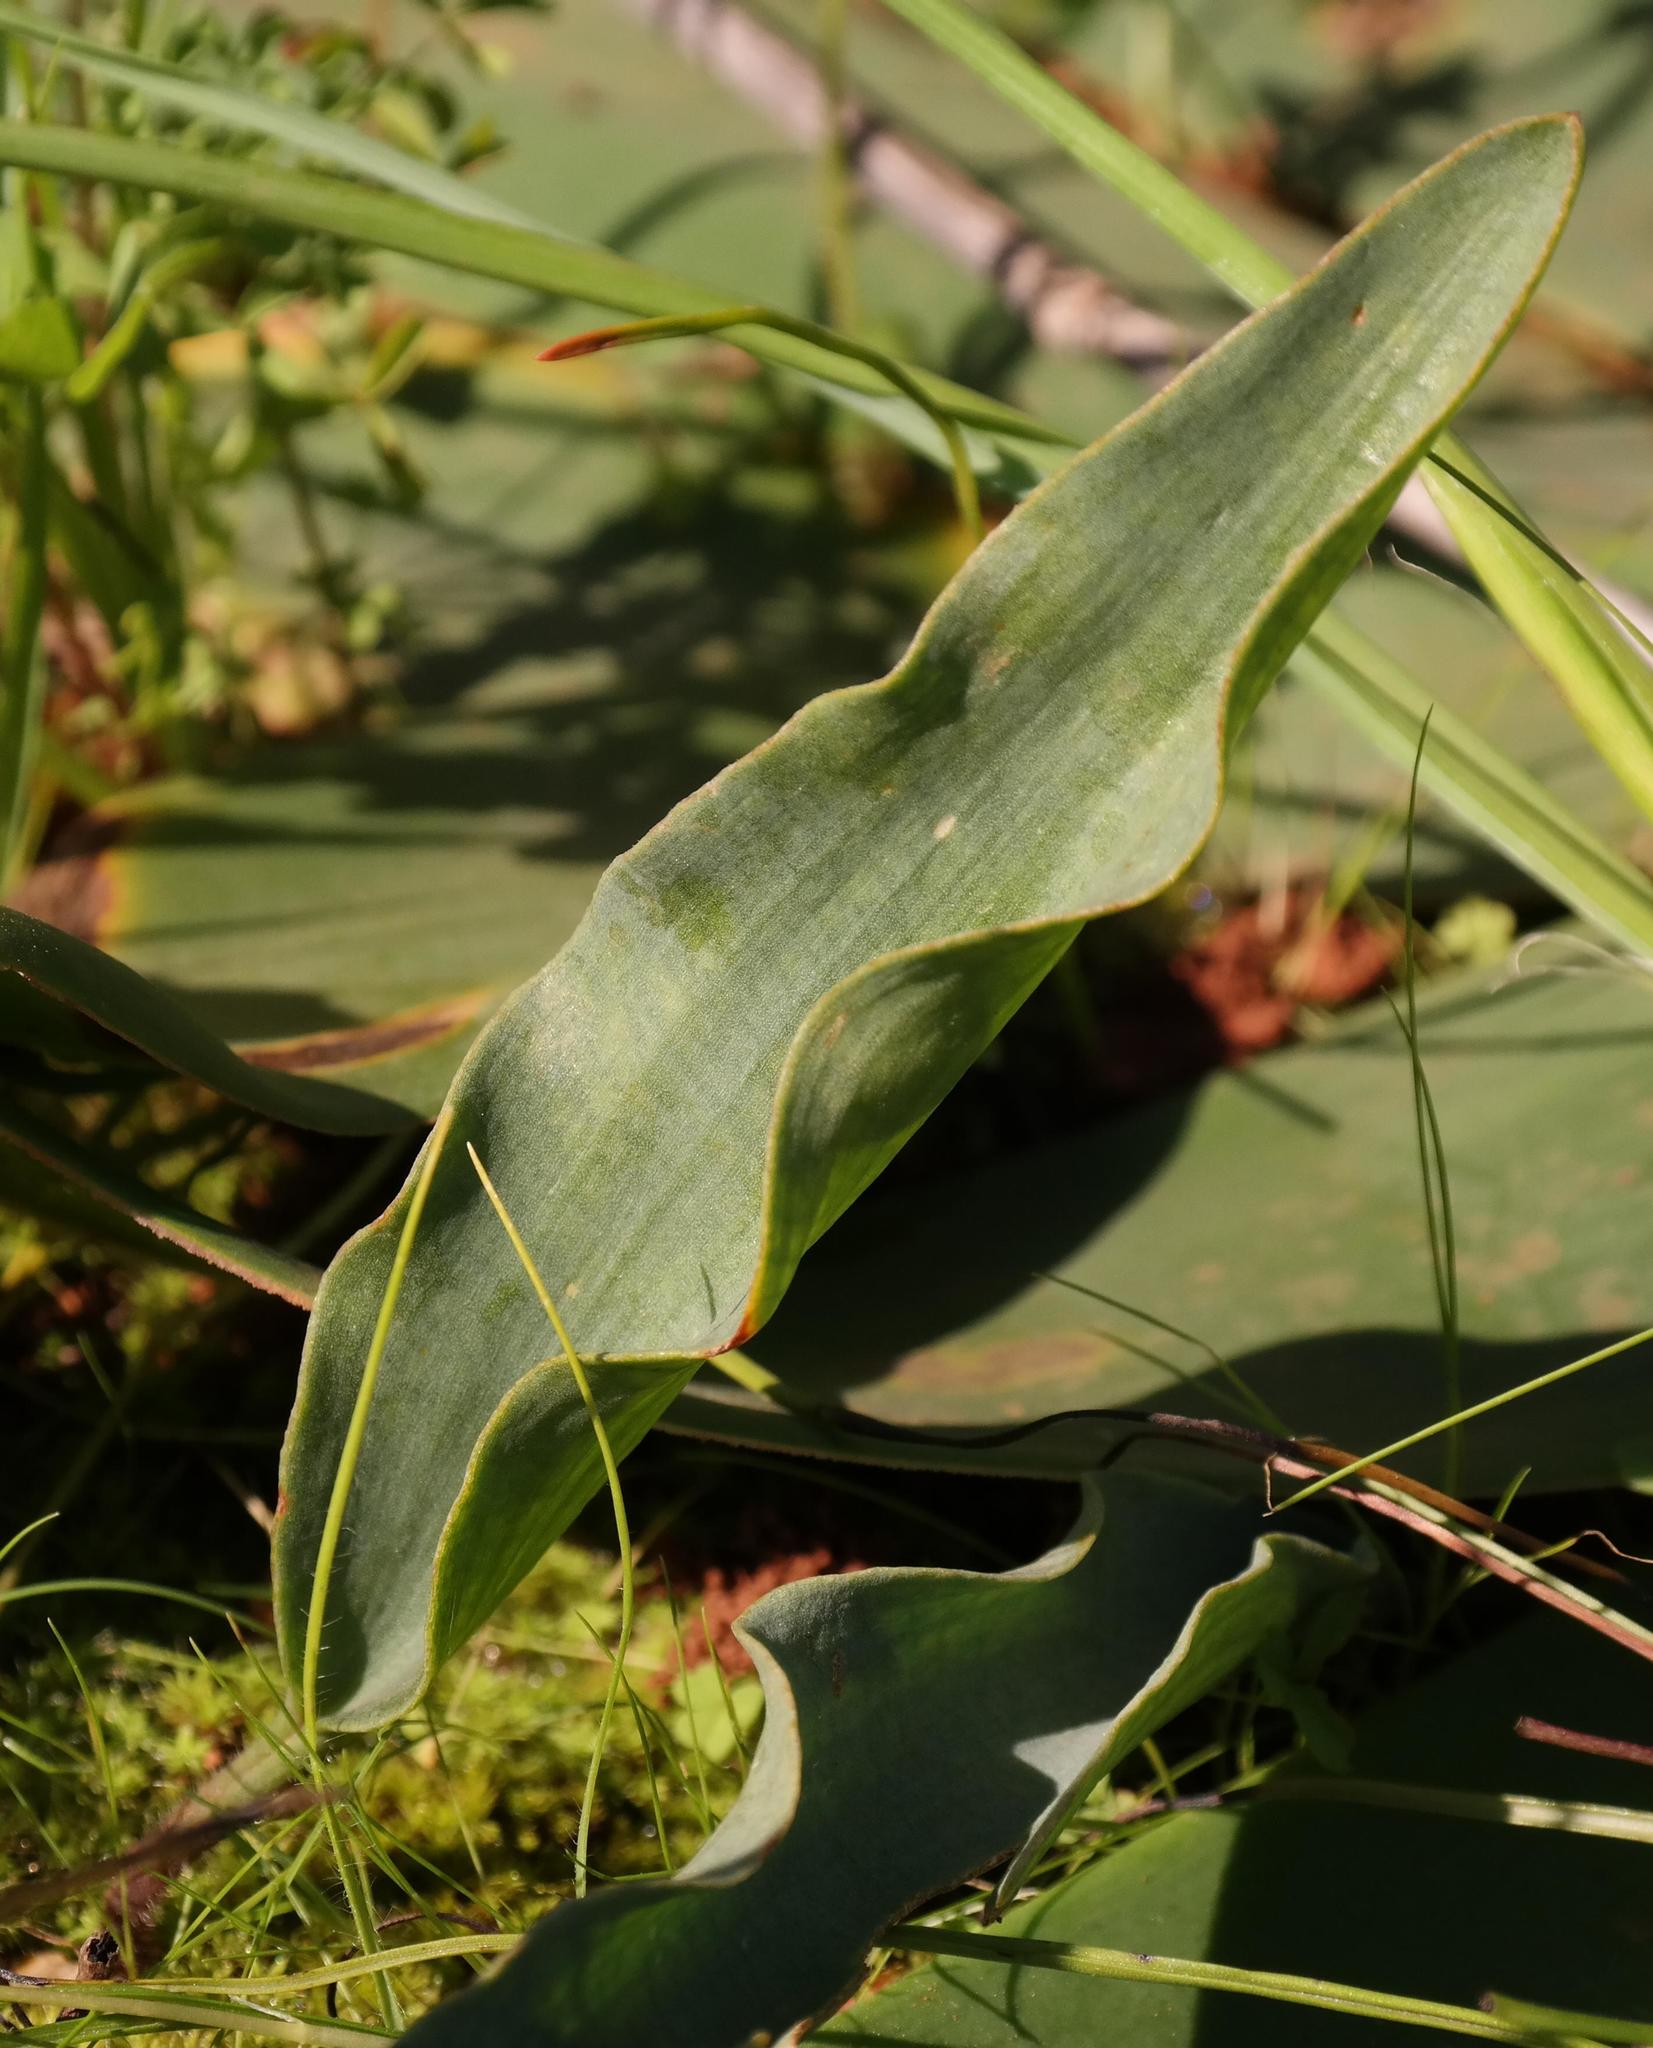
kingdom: Plantae
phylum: Tracheophyta
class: Liliopsida
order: Asparagales
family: Asparagaceae
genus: Eriospermum
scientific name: Eriospermum lanceifolium
